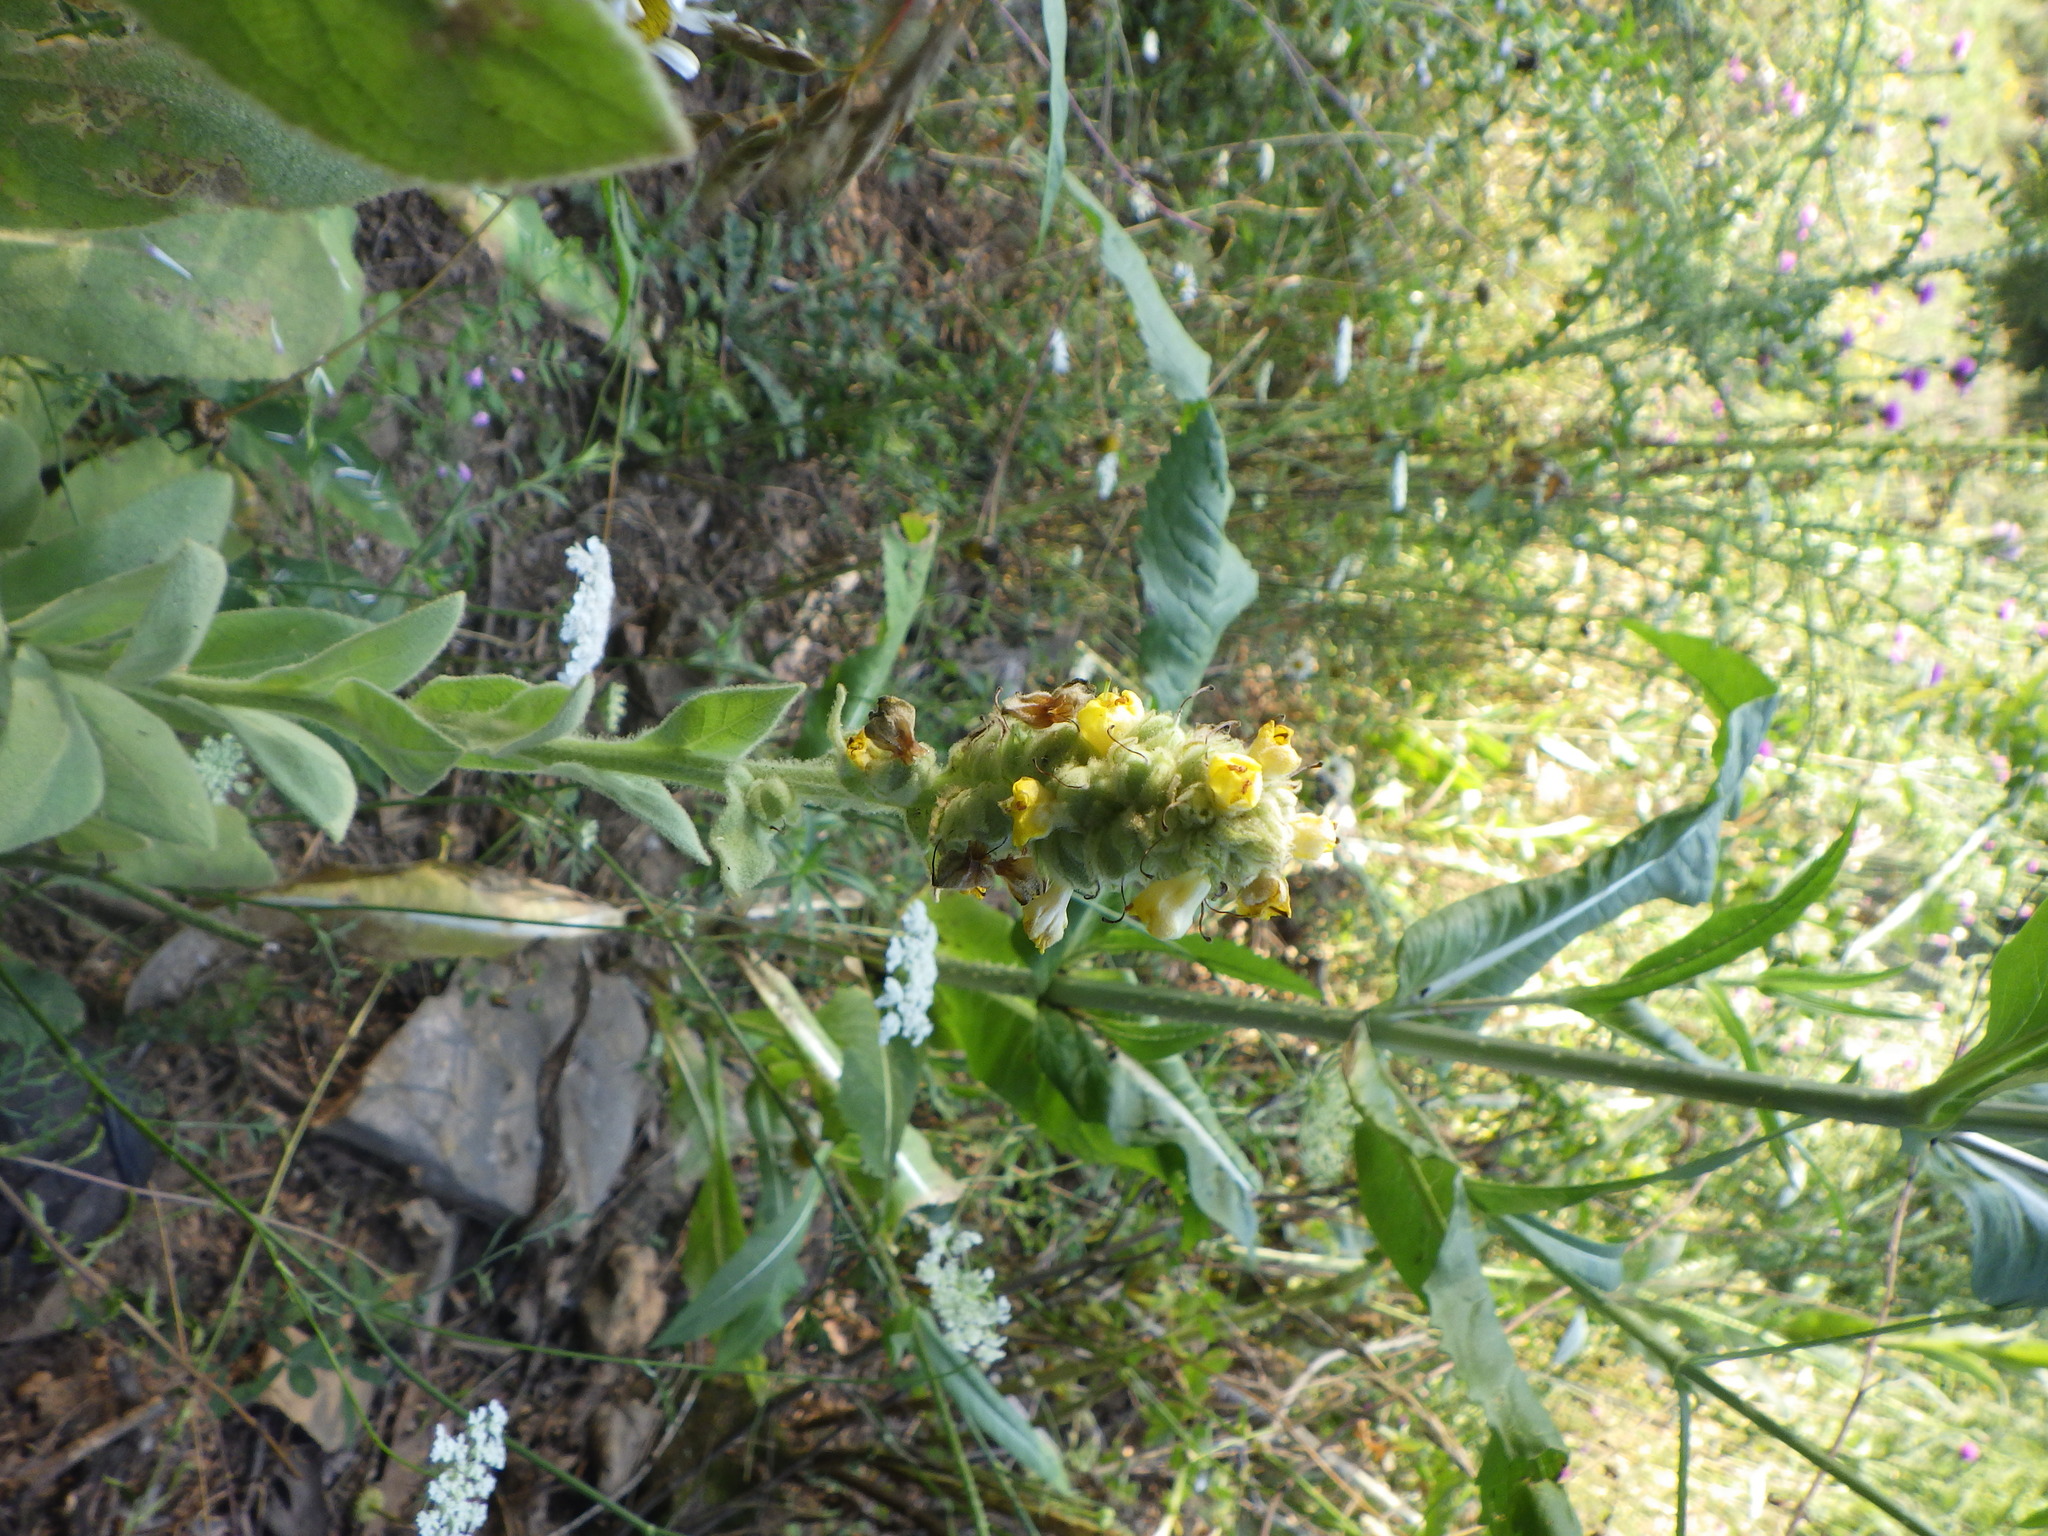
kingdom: Plantae
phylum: Tracheophyta
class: Magnoliopsida
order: Lamiales
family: Scrophulariaceae
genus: Verbascum
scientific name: Verbascum thapsus
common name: Common mullein
